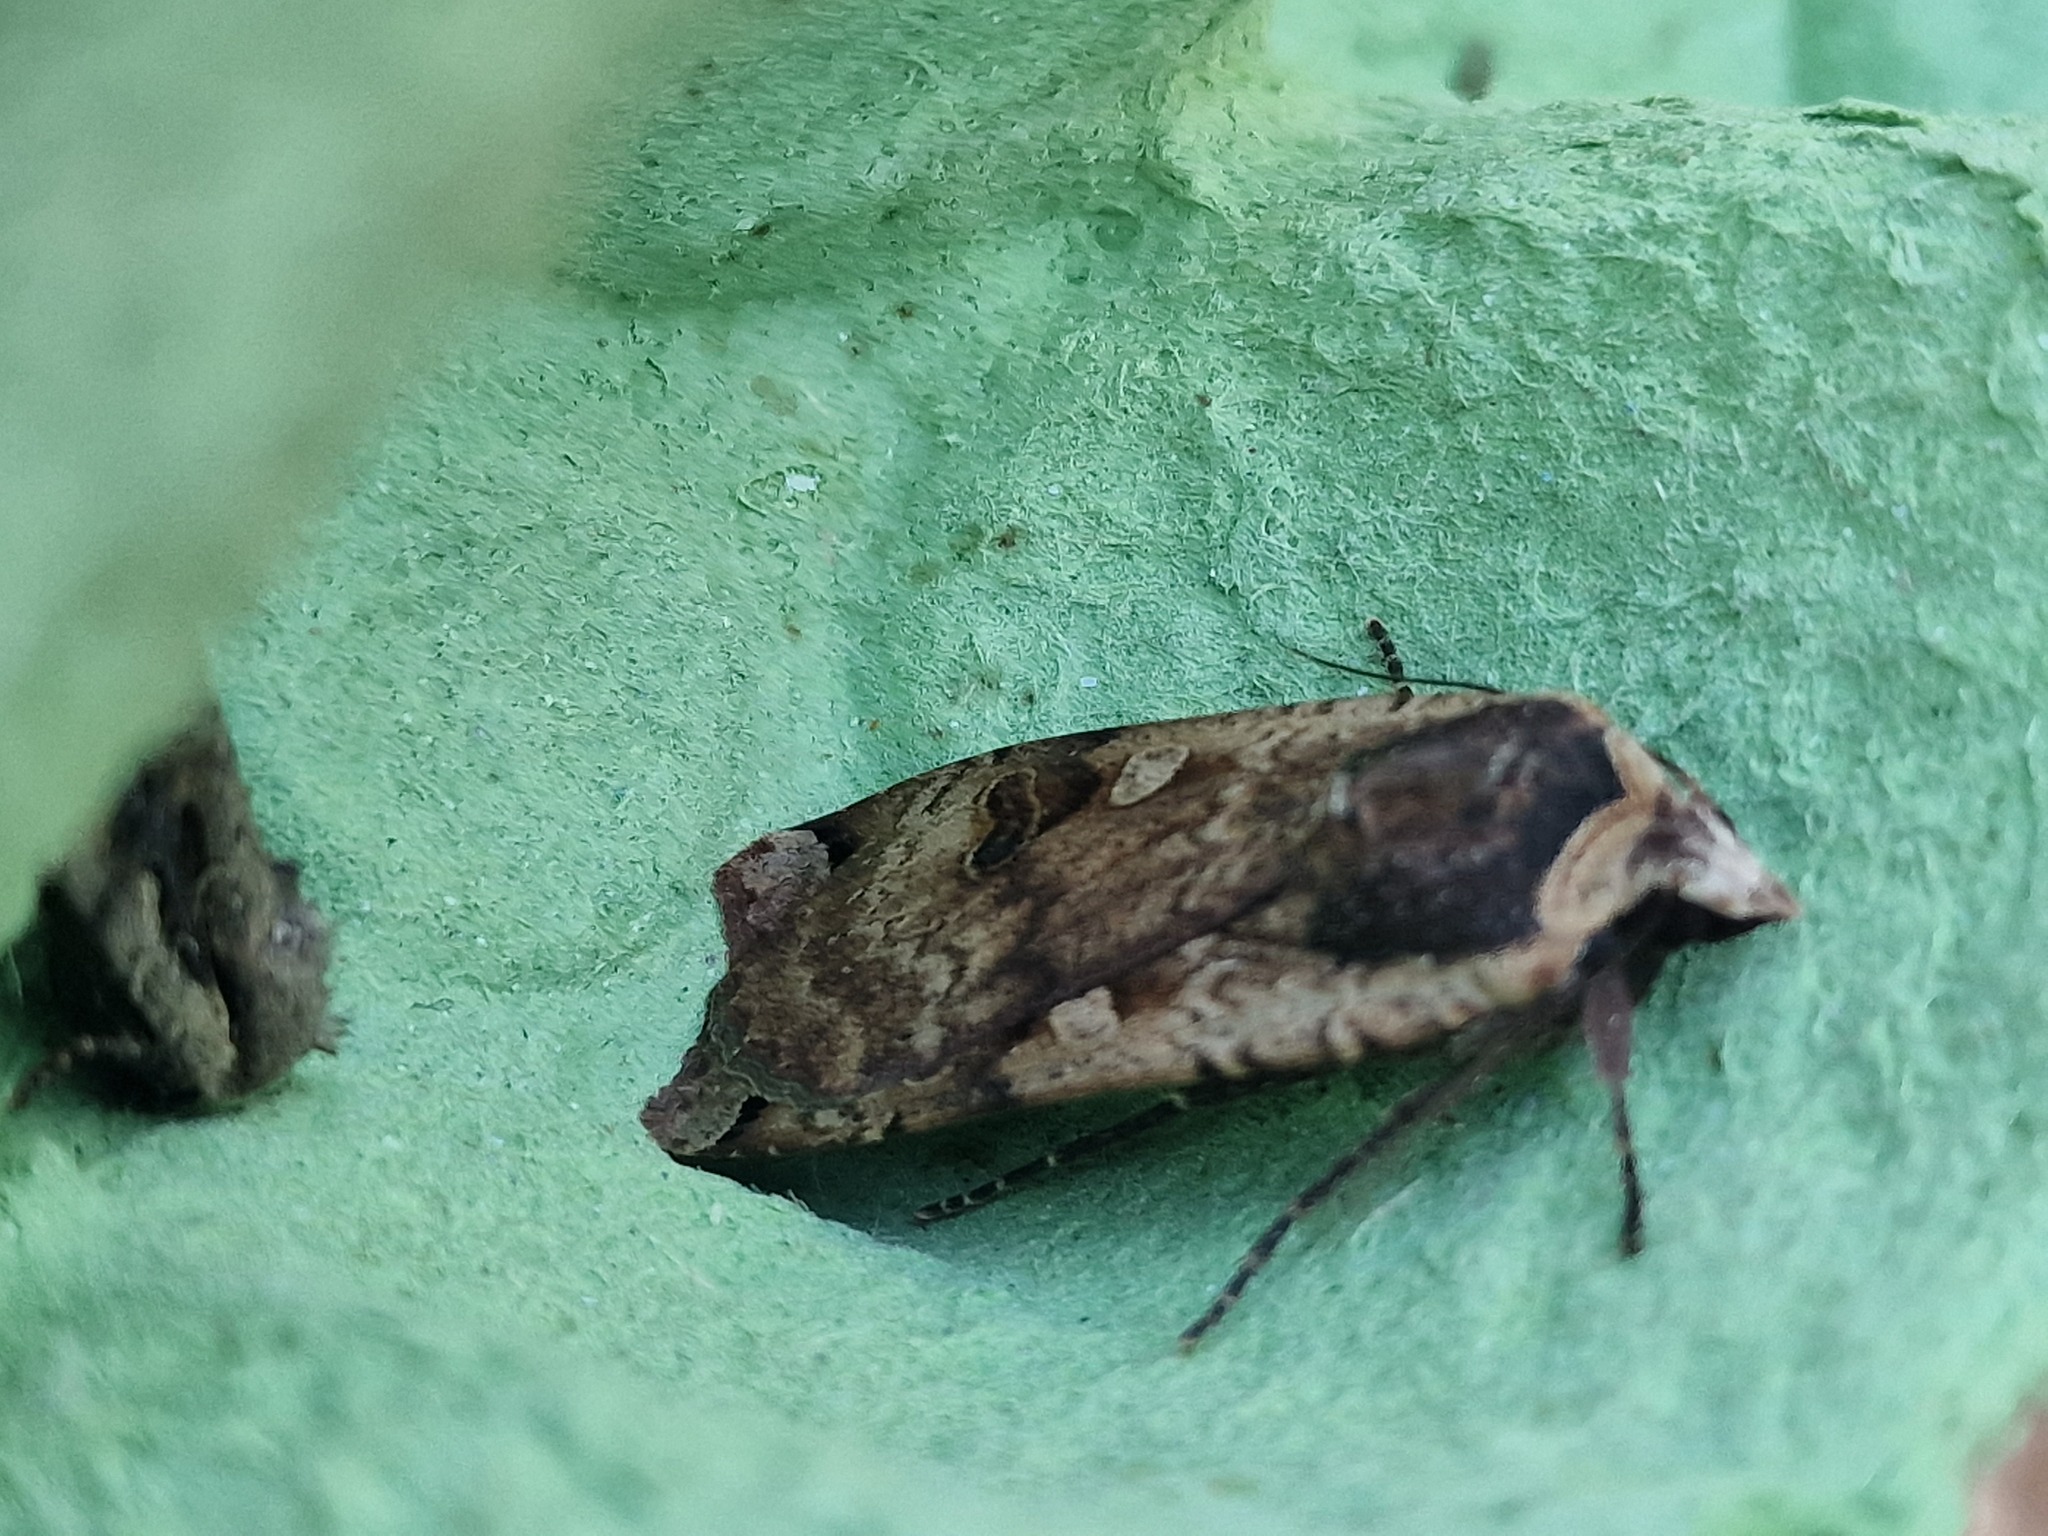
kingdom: Animalia
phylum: Arthropoda
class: Insecta
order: Lepidoptera
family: Noctuidae
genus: Noctua
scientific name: Noctua pronuba
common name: Large yellow underwing
